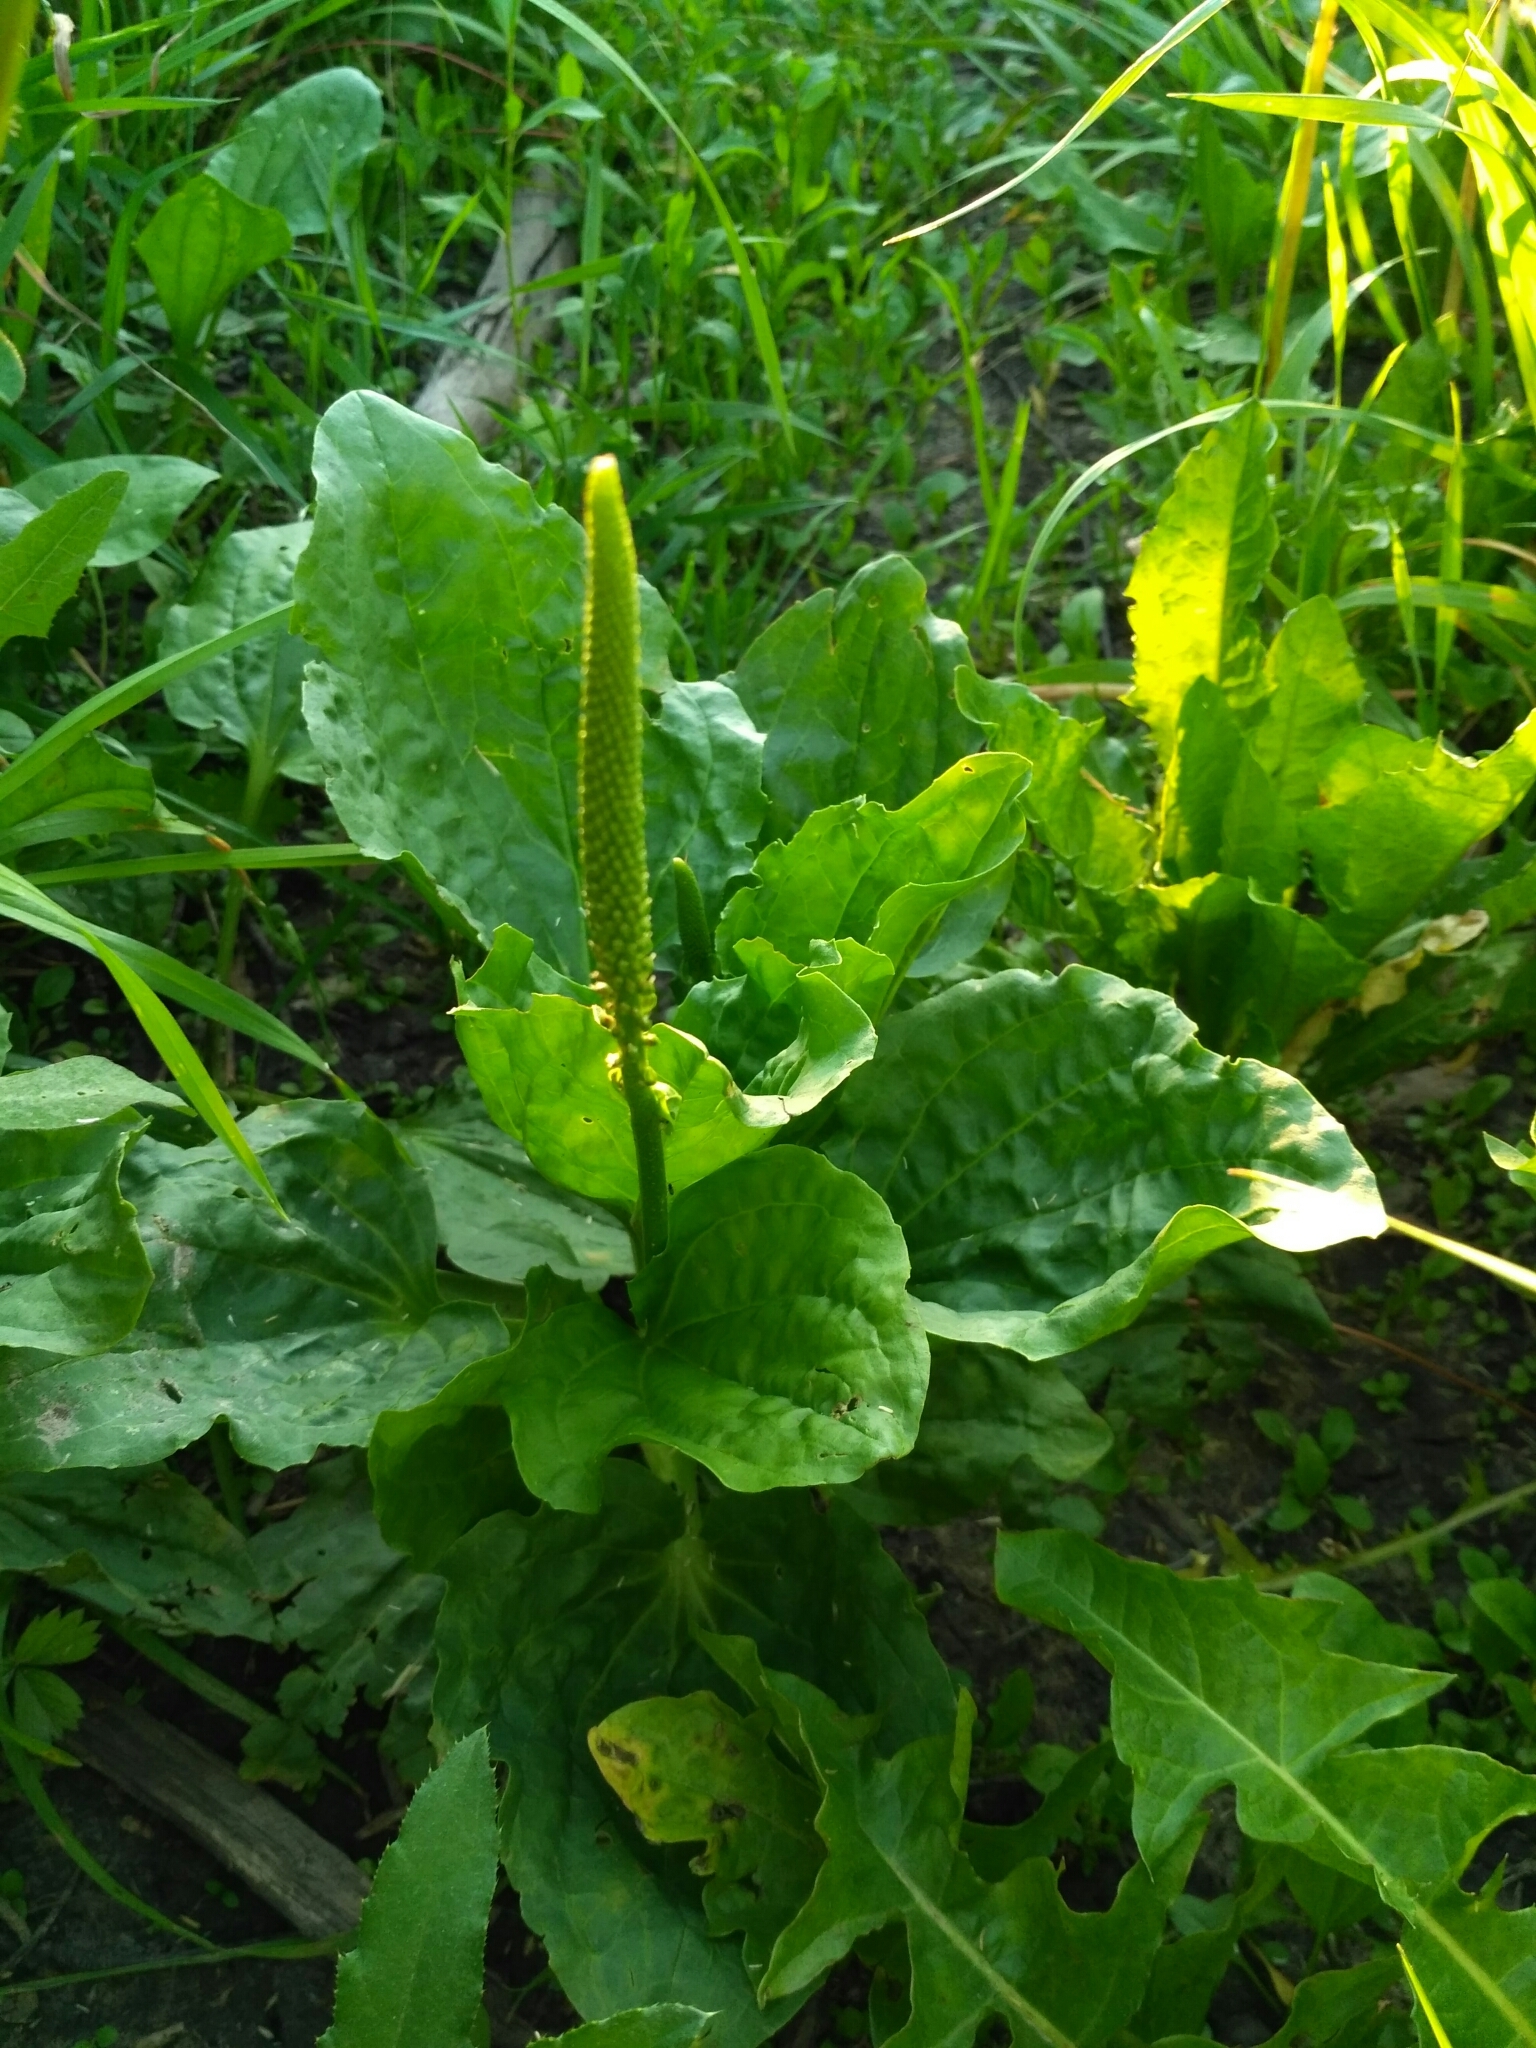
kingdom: Plantae
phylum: Tracheophyta
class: Magnoliopsida
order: Lamiales
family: Plantaginaceae
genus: Plantago
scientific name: Plantago major
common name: Common plantain
